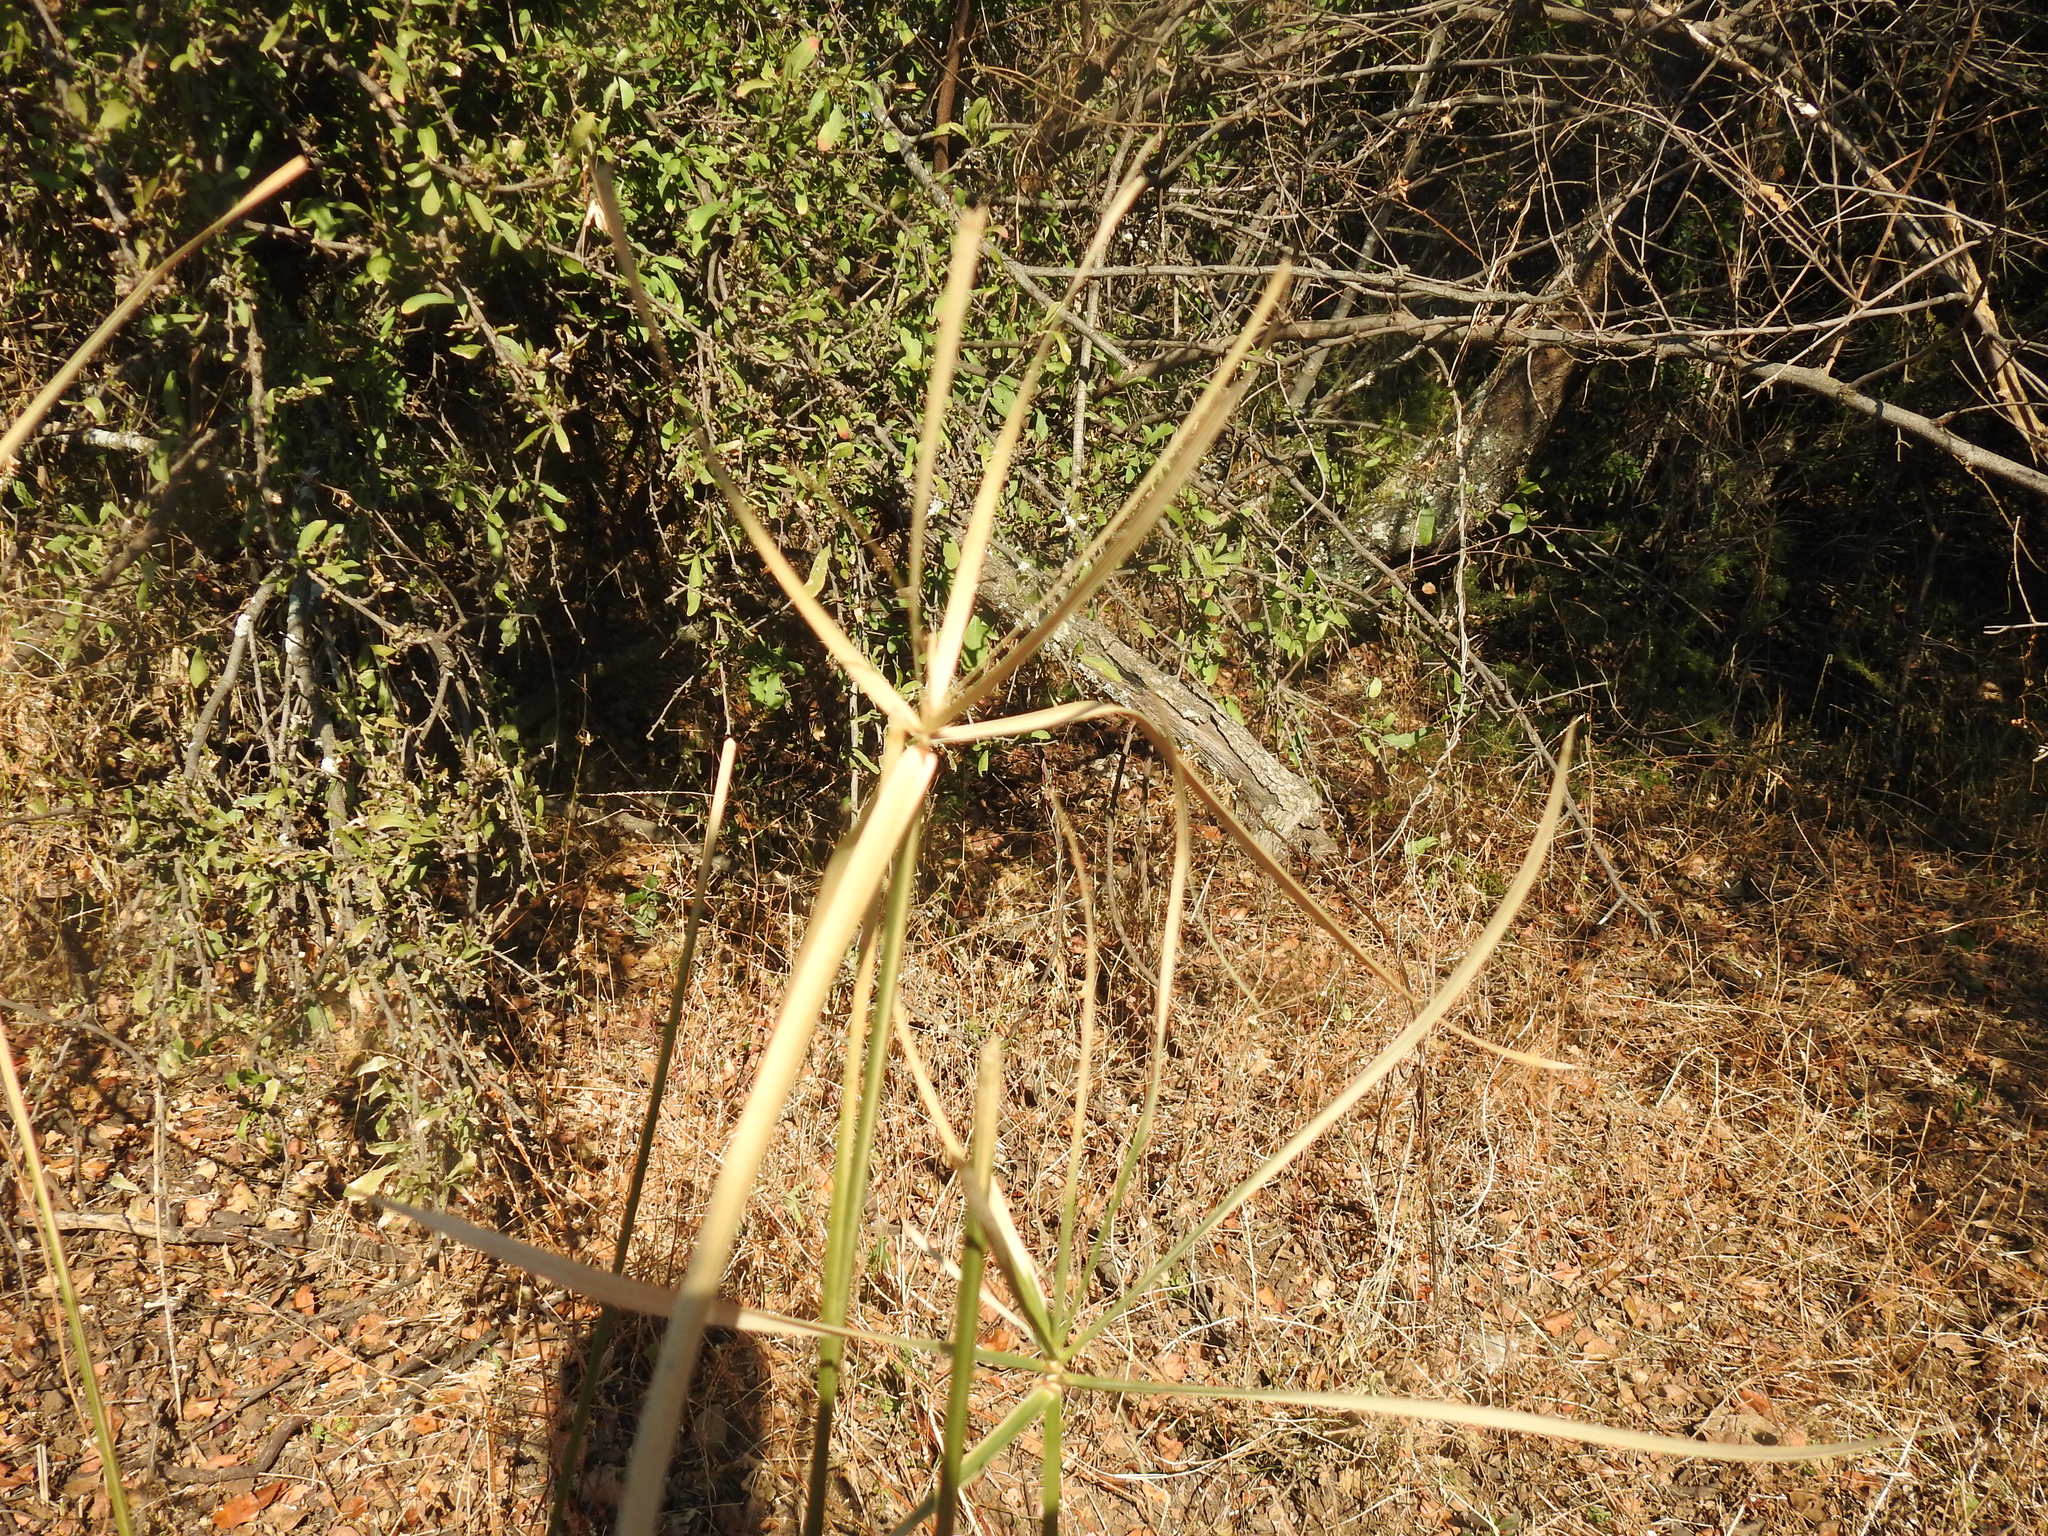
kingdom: Plantae
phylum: Tracheophyta
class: Liliopsida
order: Poales
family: Cyperaceae
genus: Cyperus
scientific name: Cyperus sexangularis
